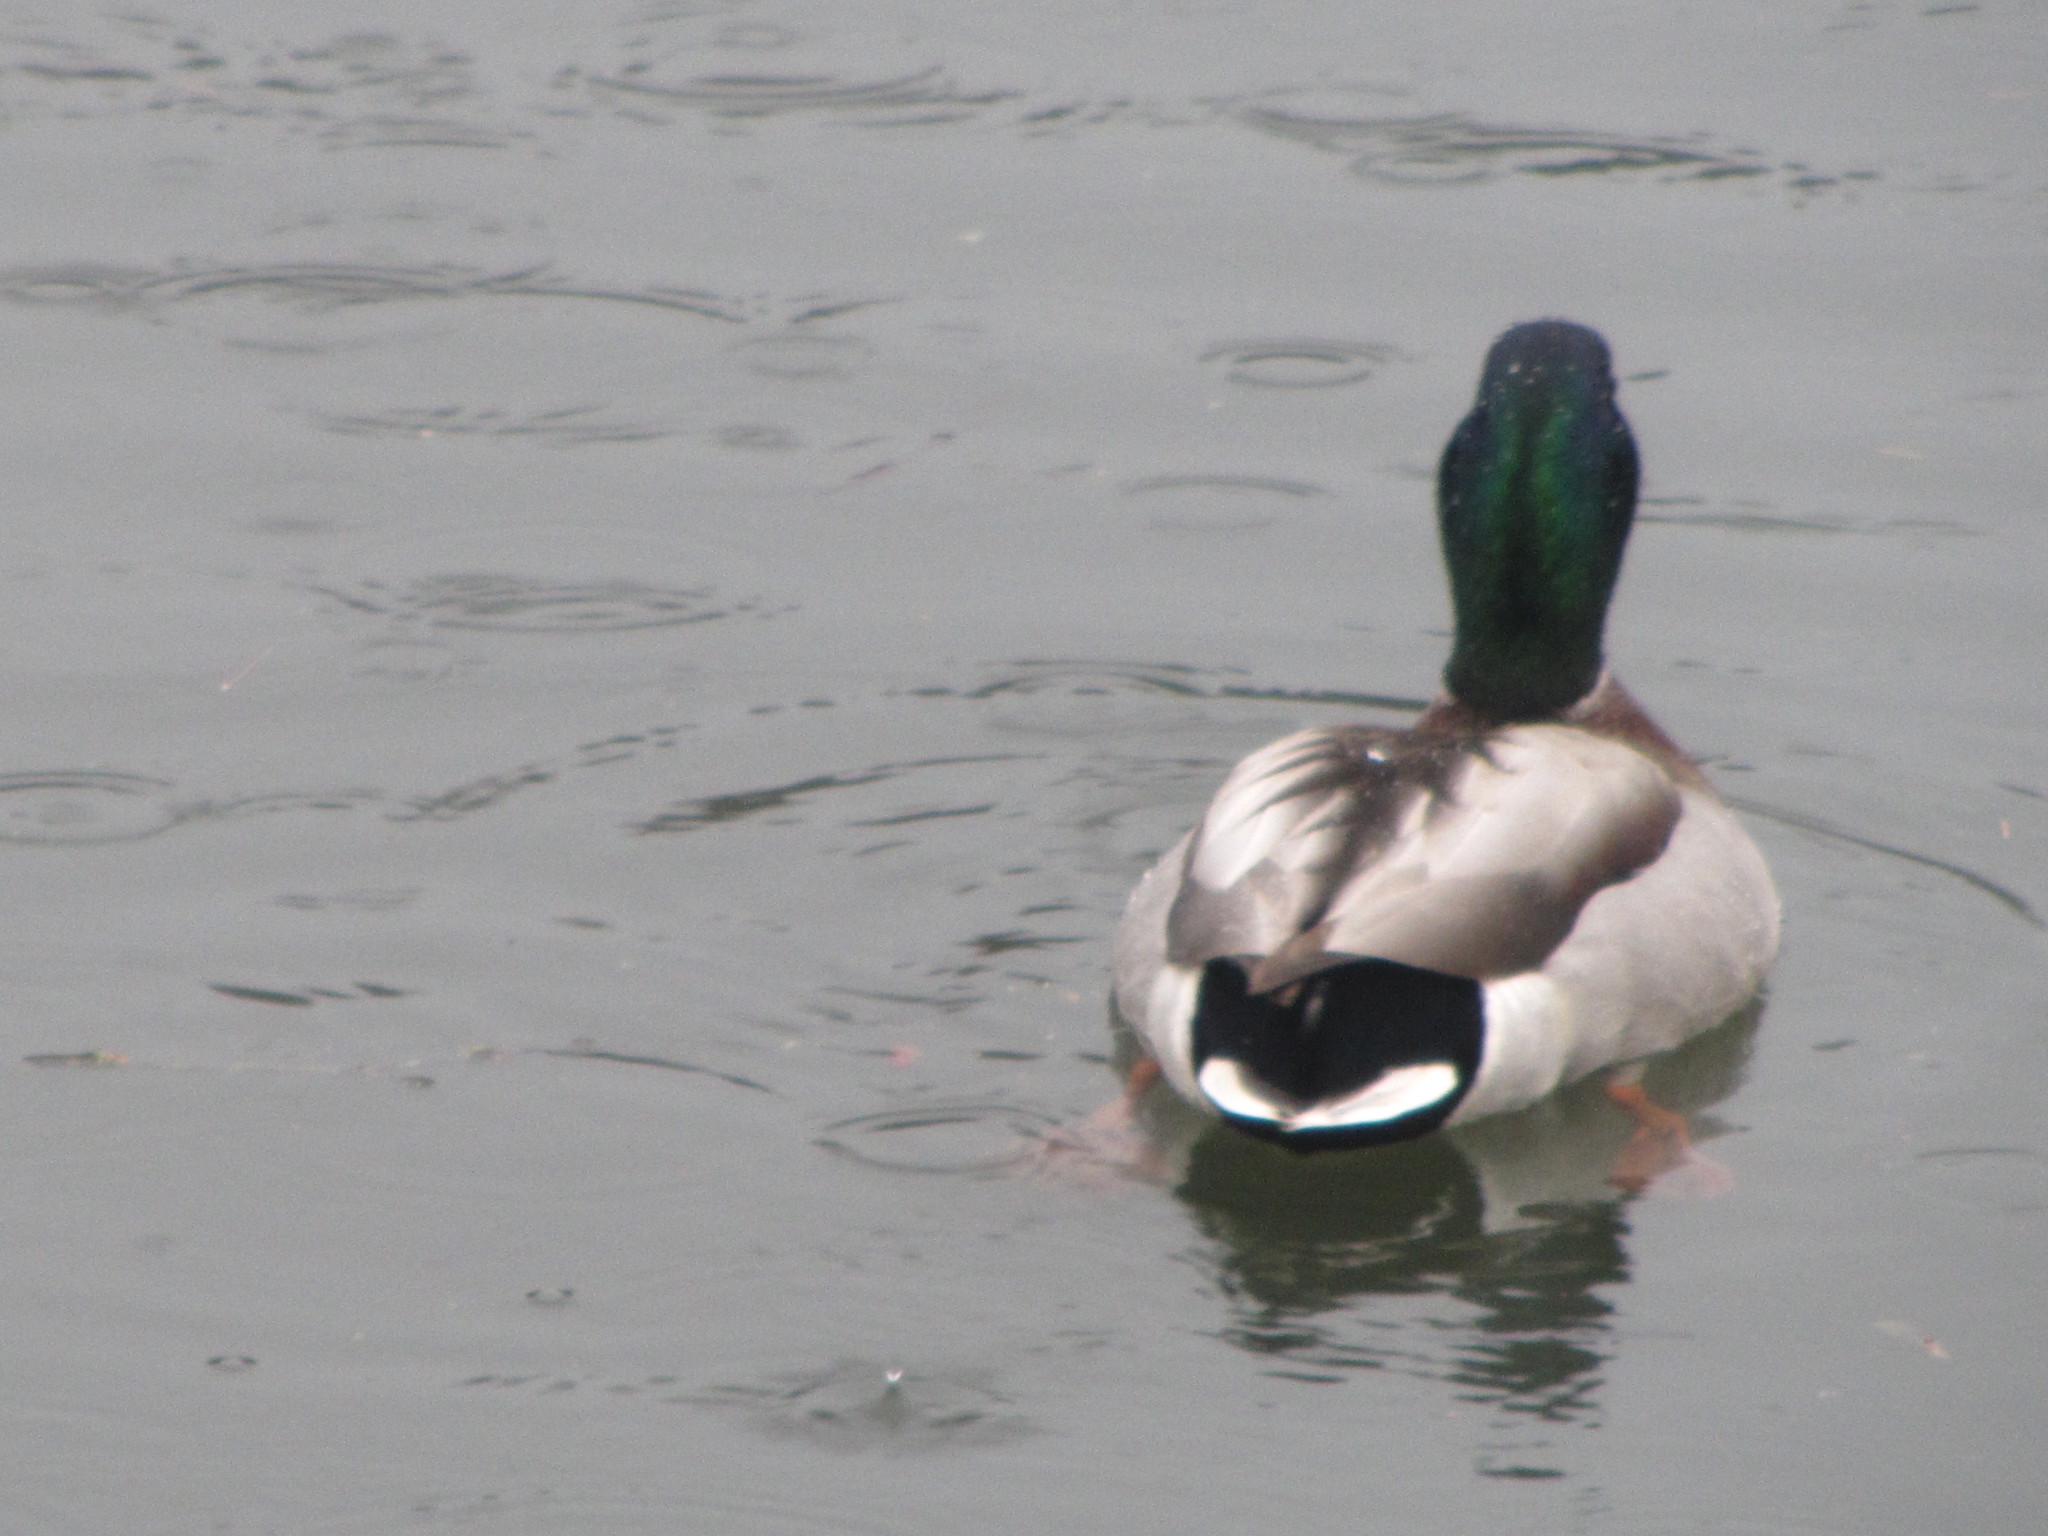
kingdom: Animalia
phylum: Chordata
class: Aves
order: Anseriformes
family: Anatidae
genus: Anas
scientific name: Anas platyrhynchos
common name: Mallard
